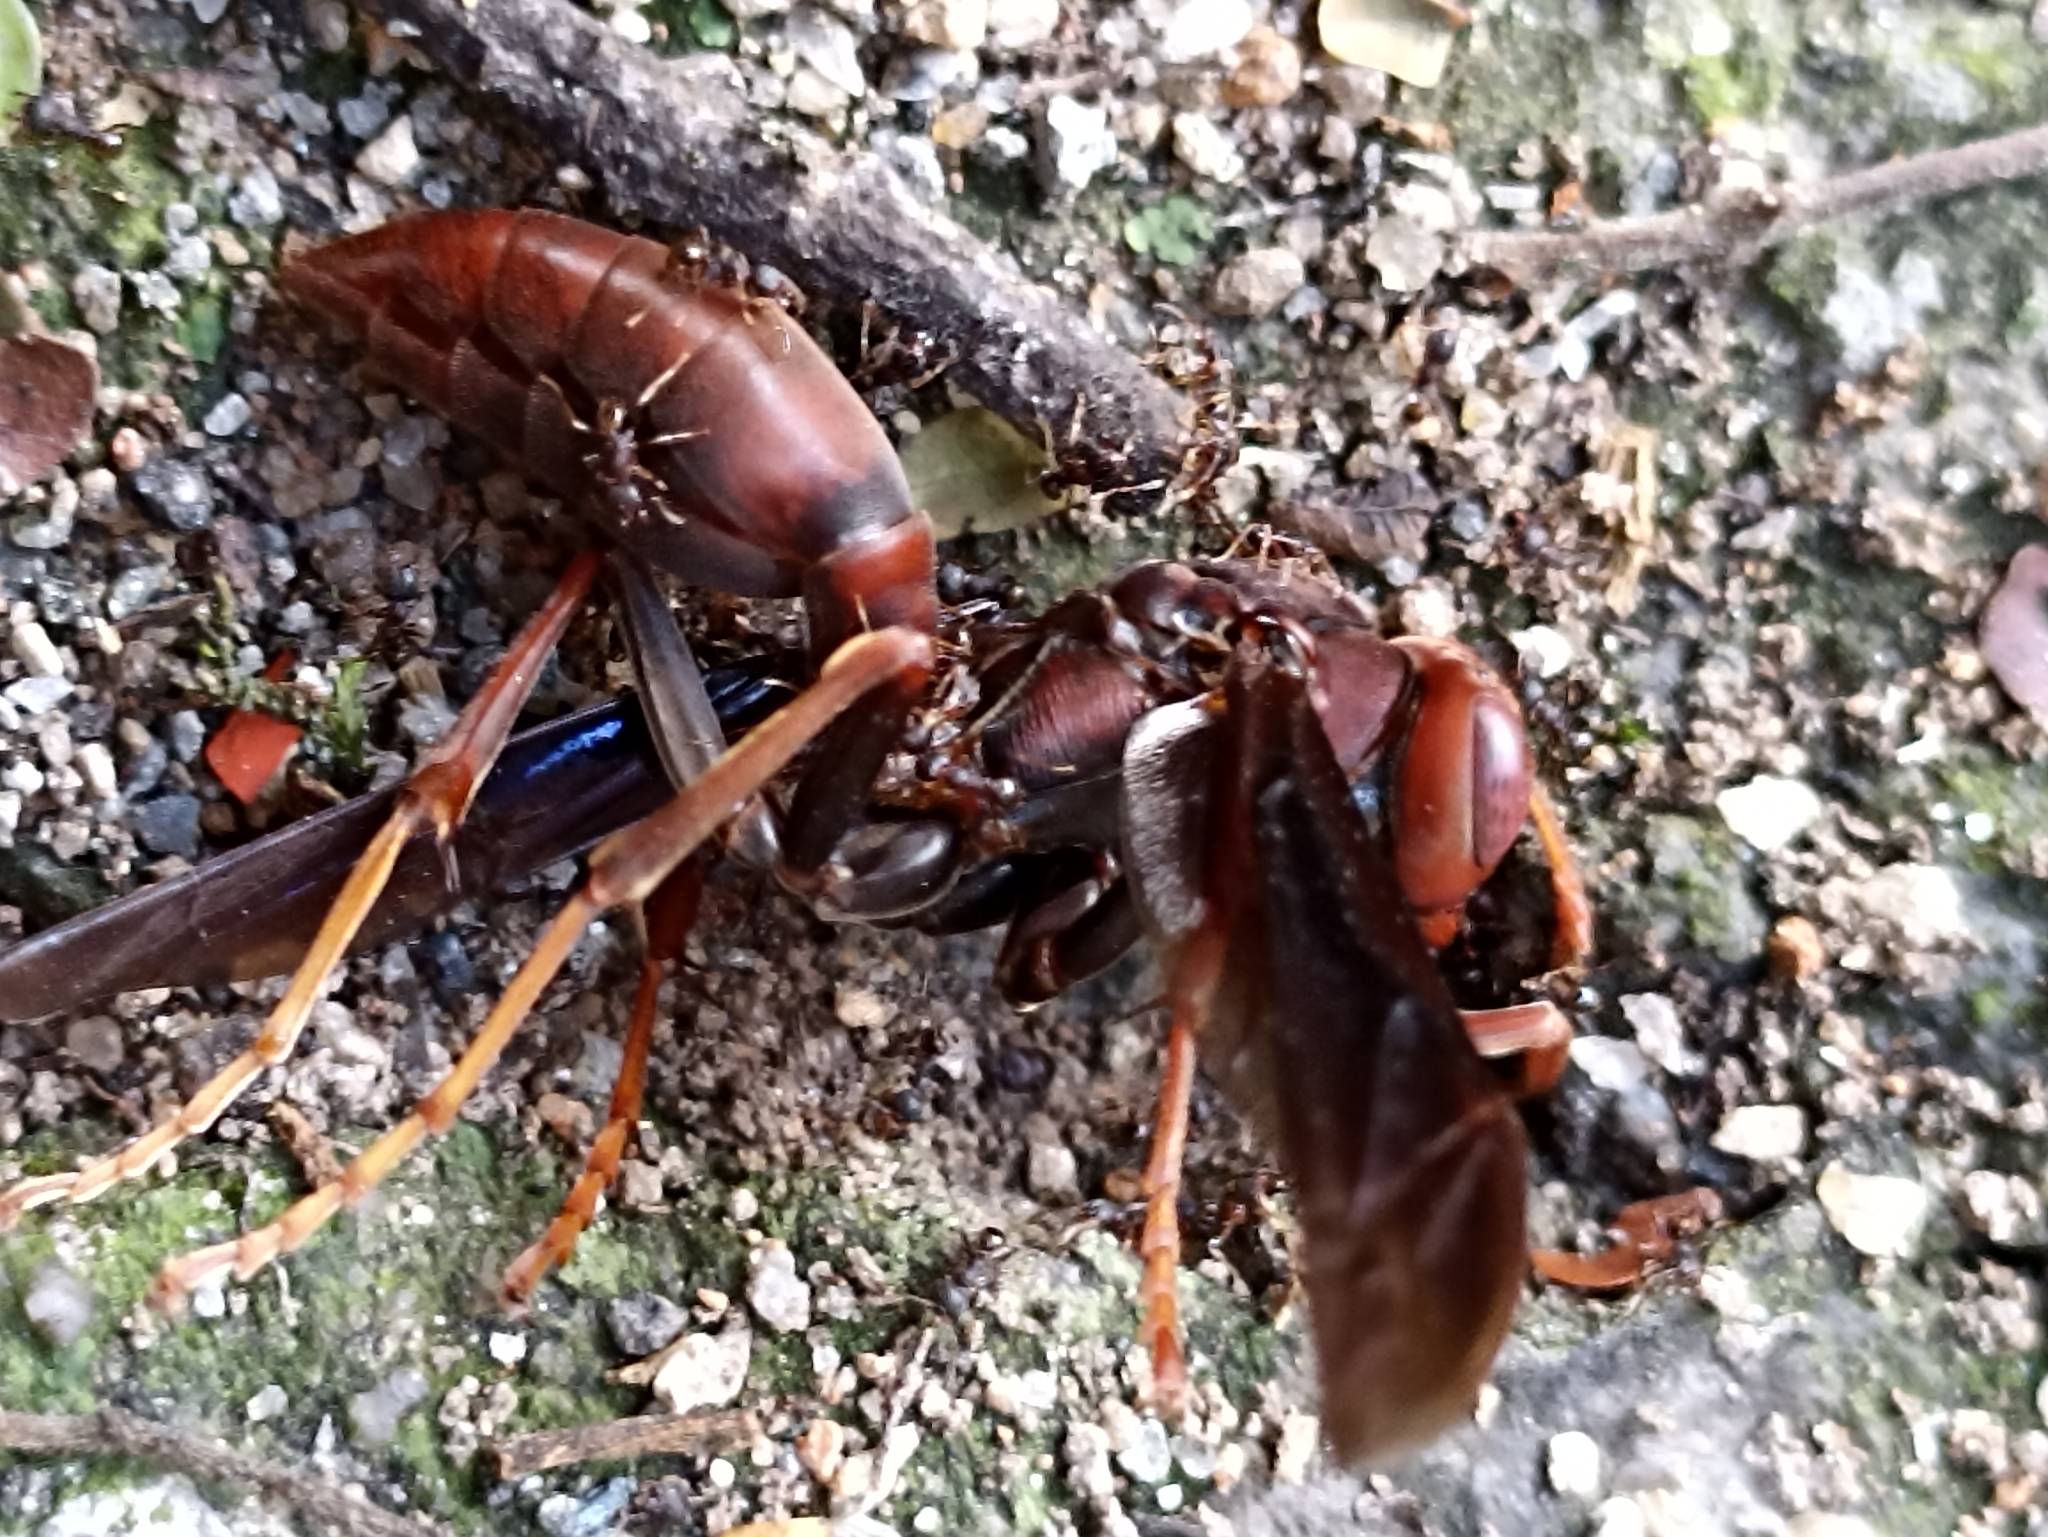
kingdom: Animalia
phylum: Arthropoda
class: Insecta
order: Hymenoptera
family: Eumenidae
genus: Polistes
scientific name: Polistes lanio
